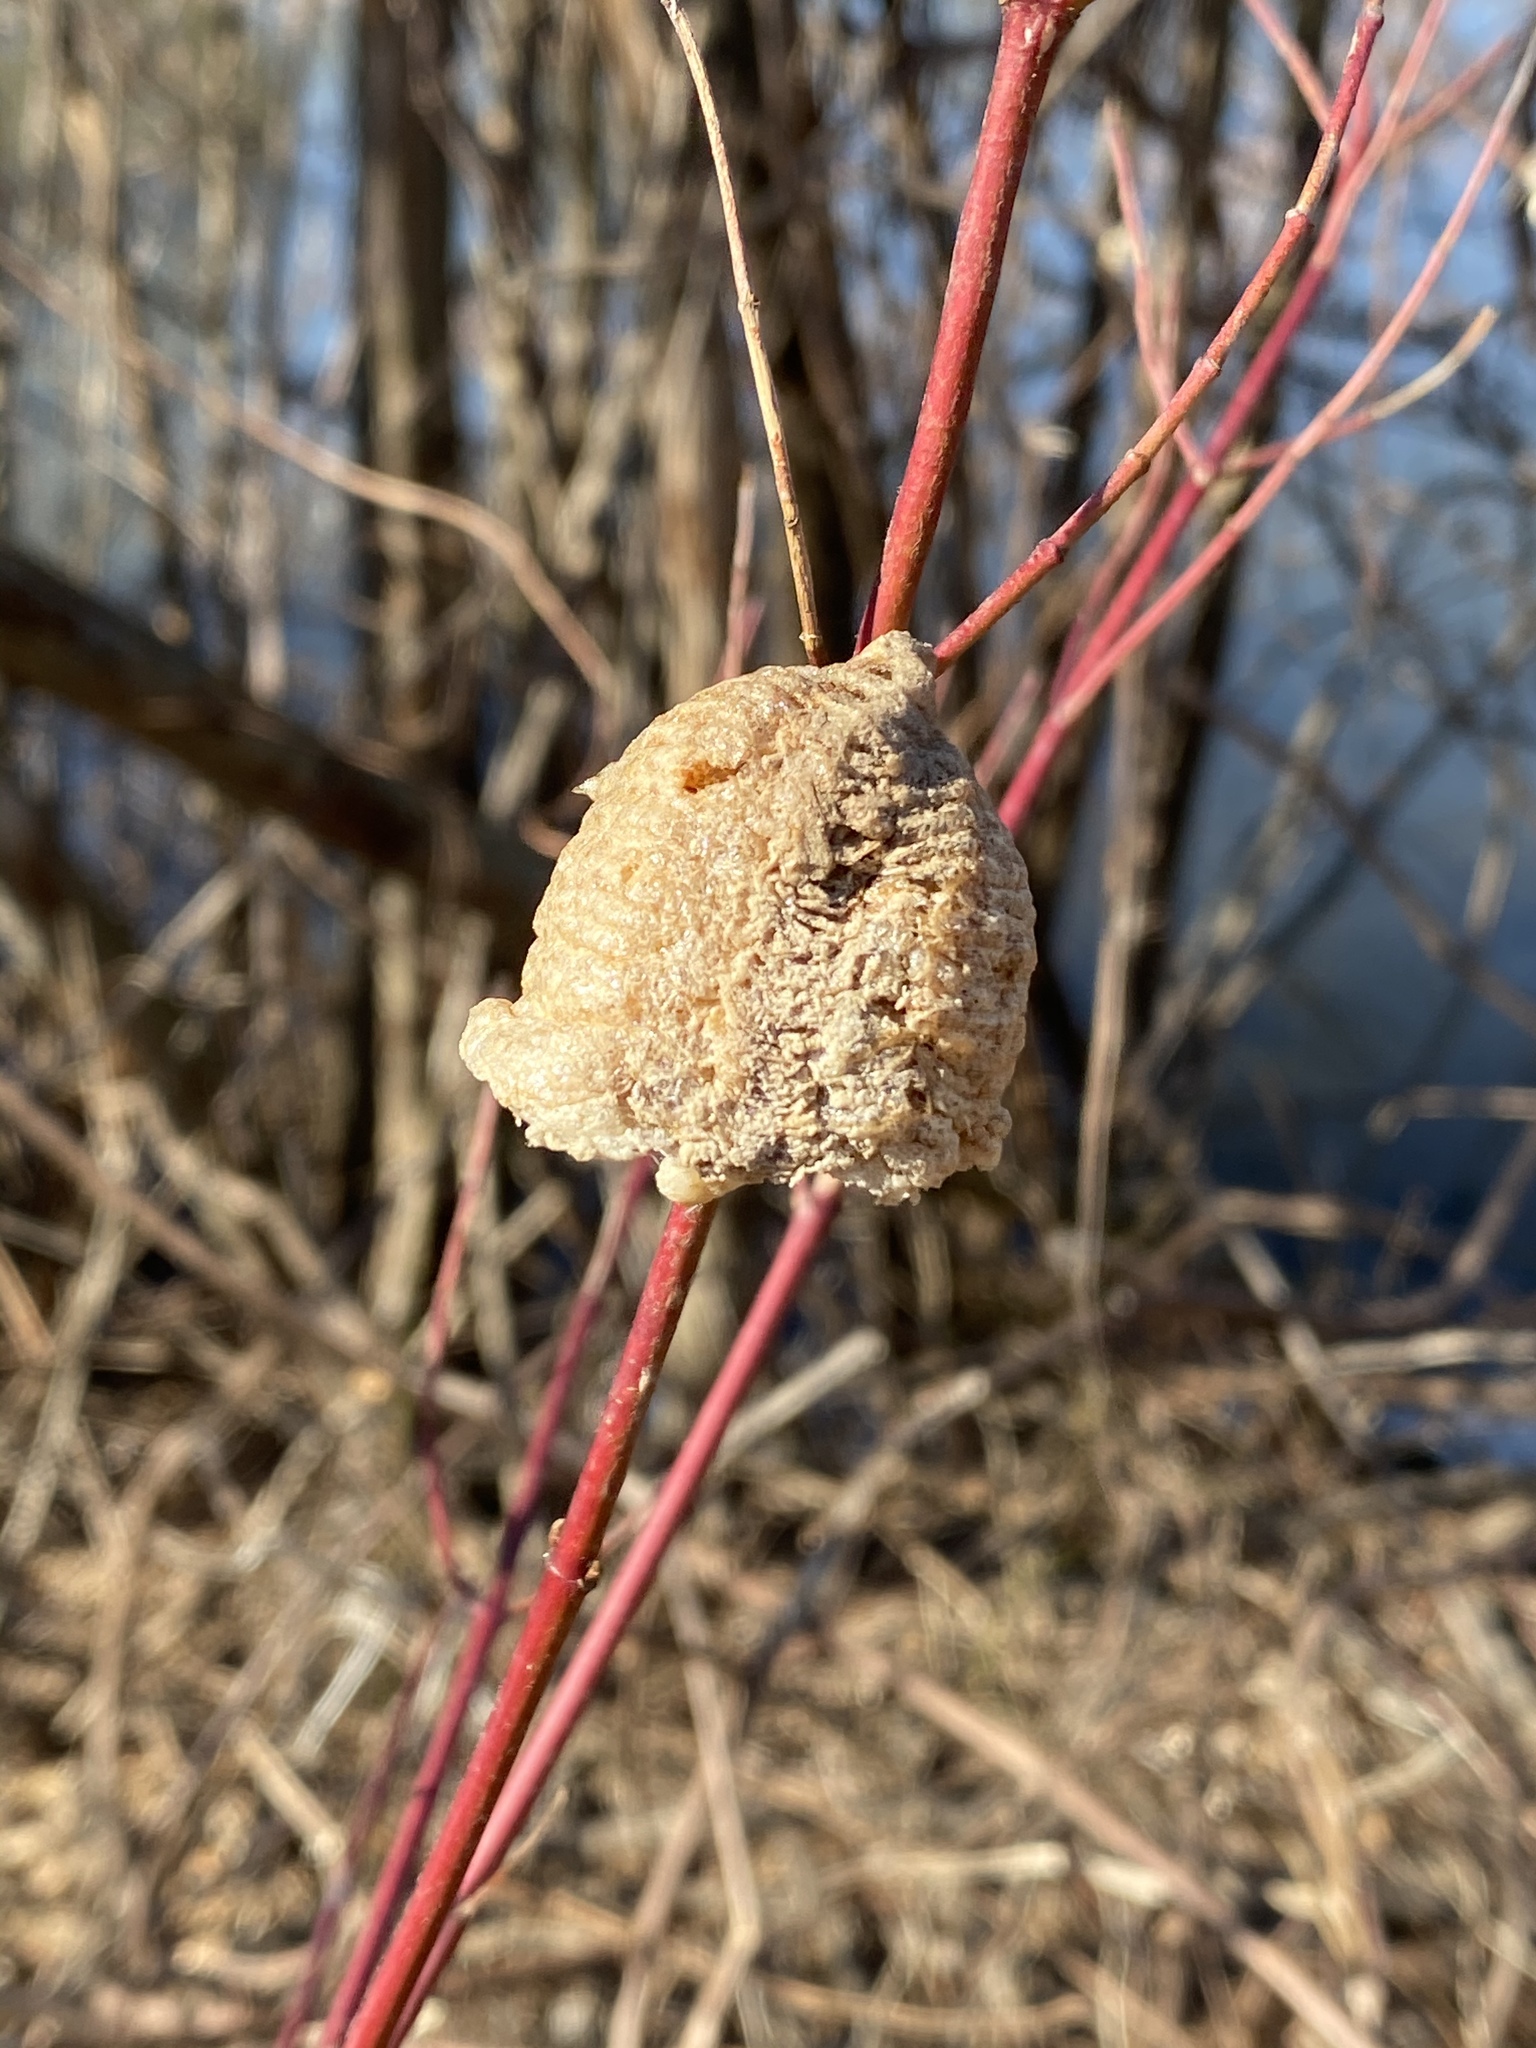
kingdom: Animalia
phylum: Arthropoda
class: Insecta
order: Mantodea
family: Mantidae
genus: Tenodera
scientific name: Tenodera sinensis
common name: Chinese mantis
